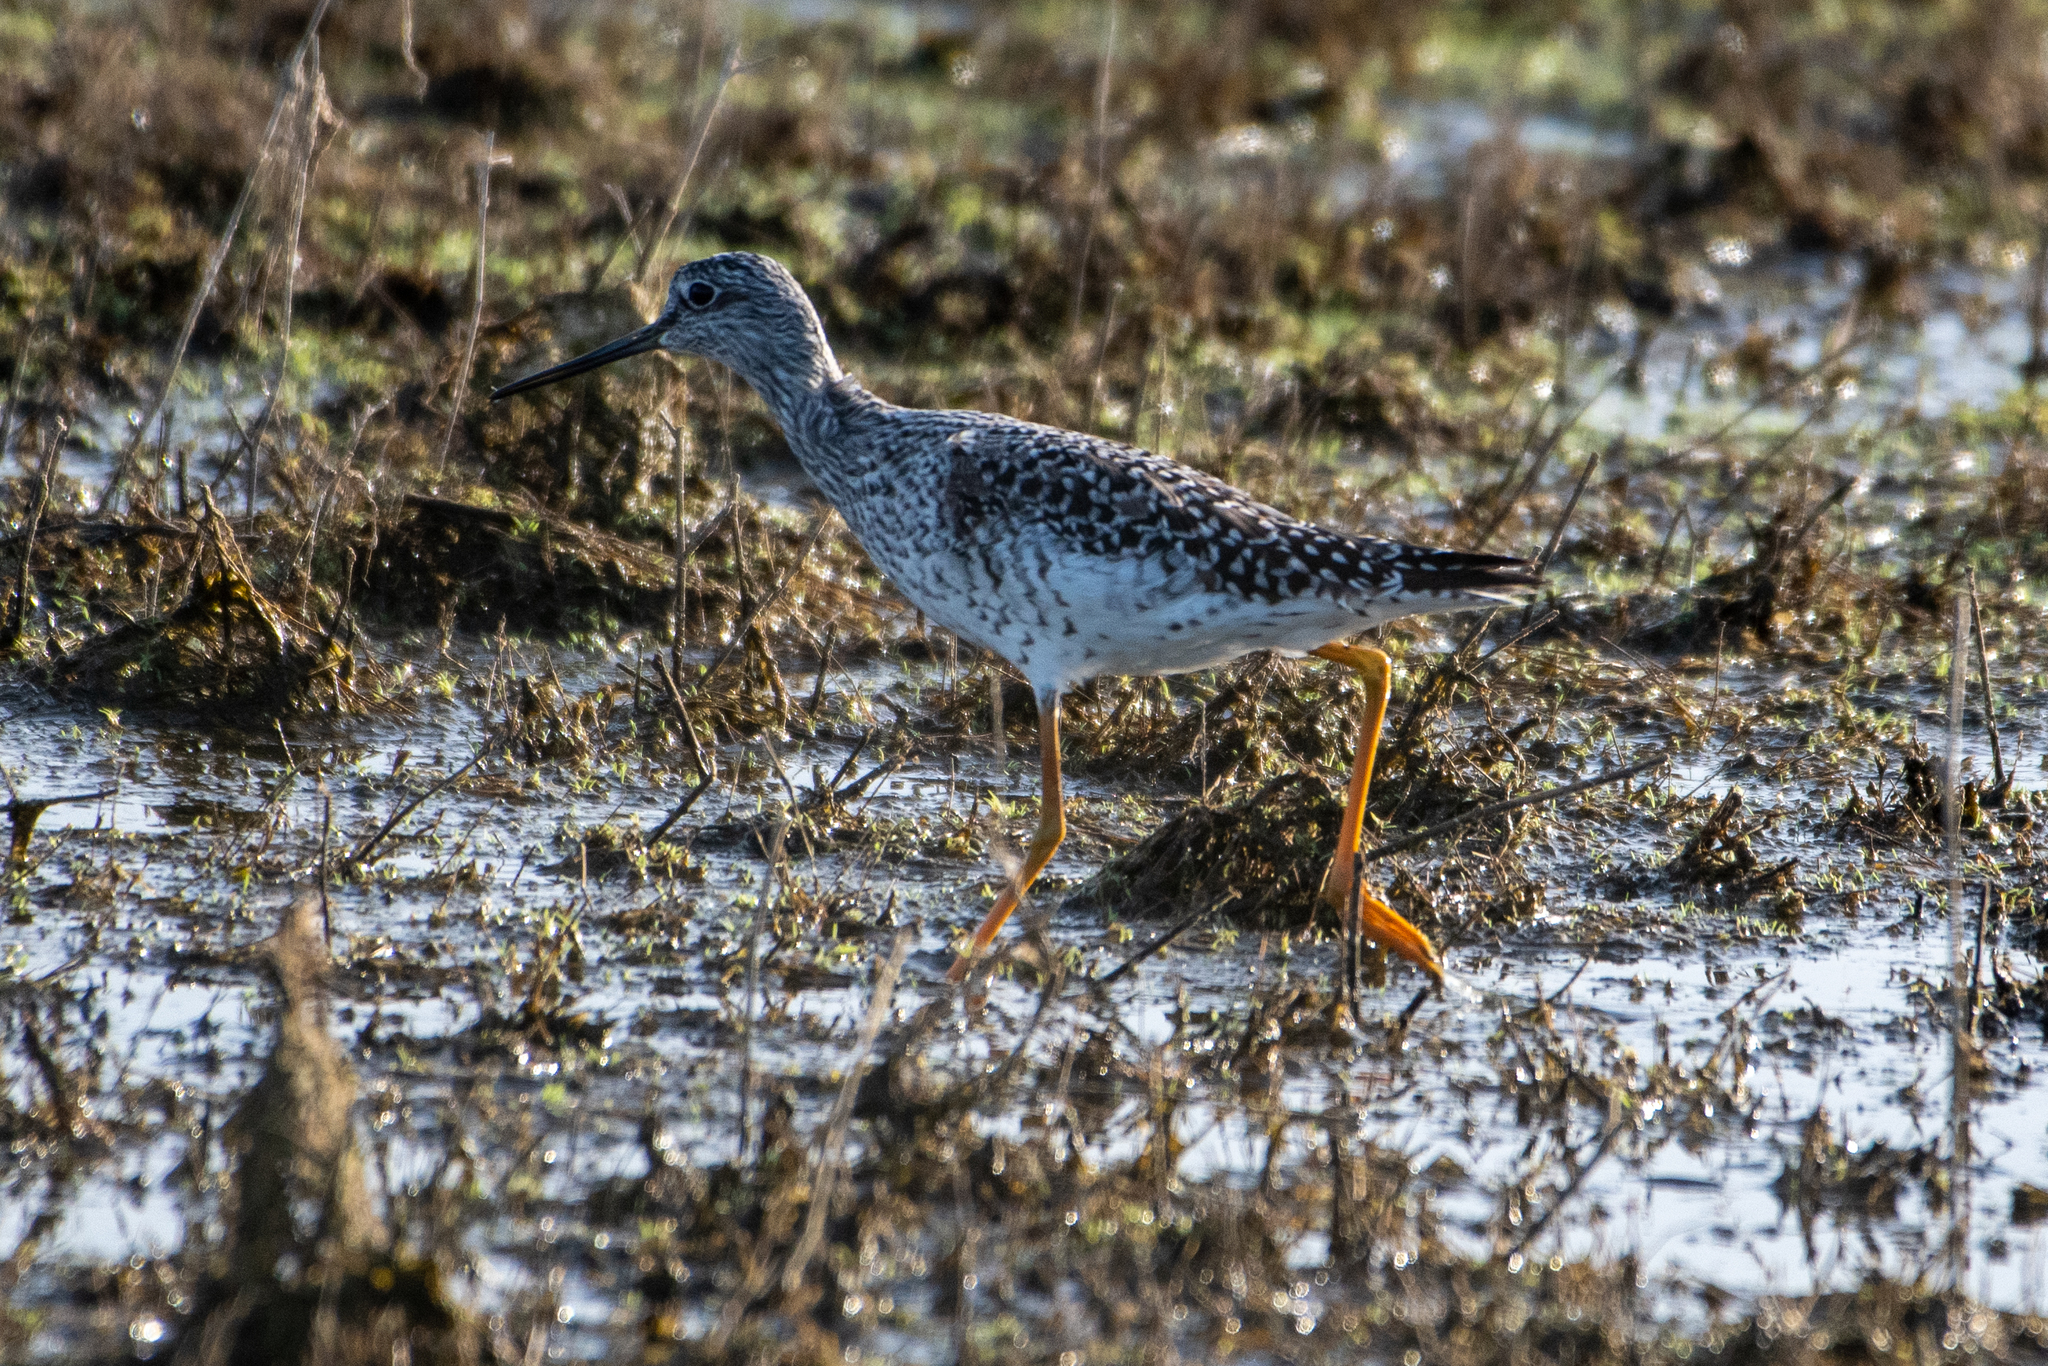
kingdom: Animalia
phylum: Chordata
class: Aves
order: Charadriiformes
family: Scolopacidae
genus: Tringa
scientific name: Tringa melanoleuca
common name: Greater yellowlegs
